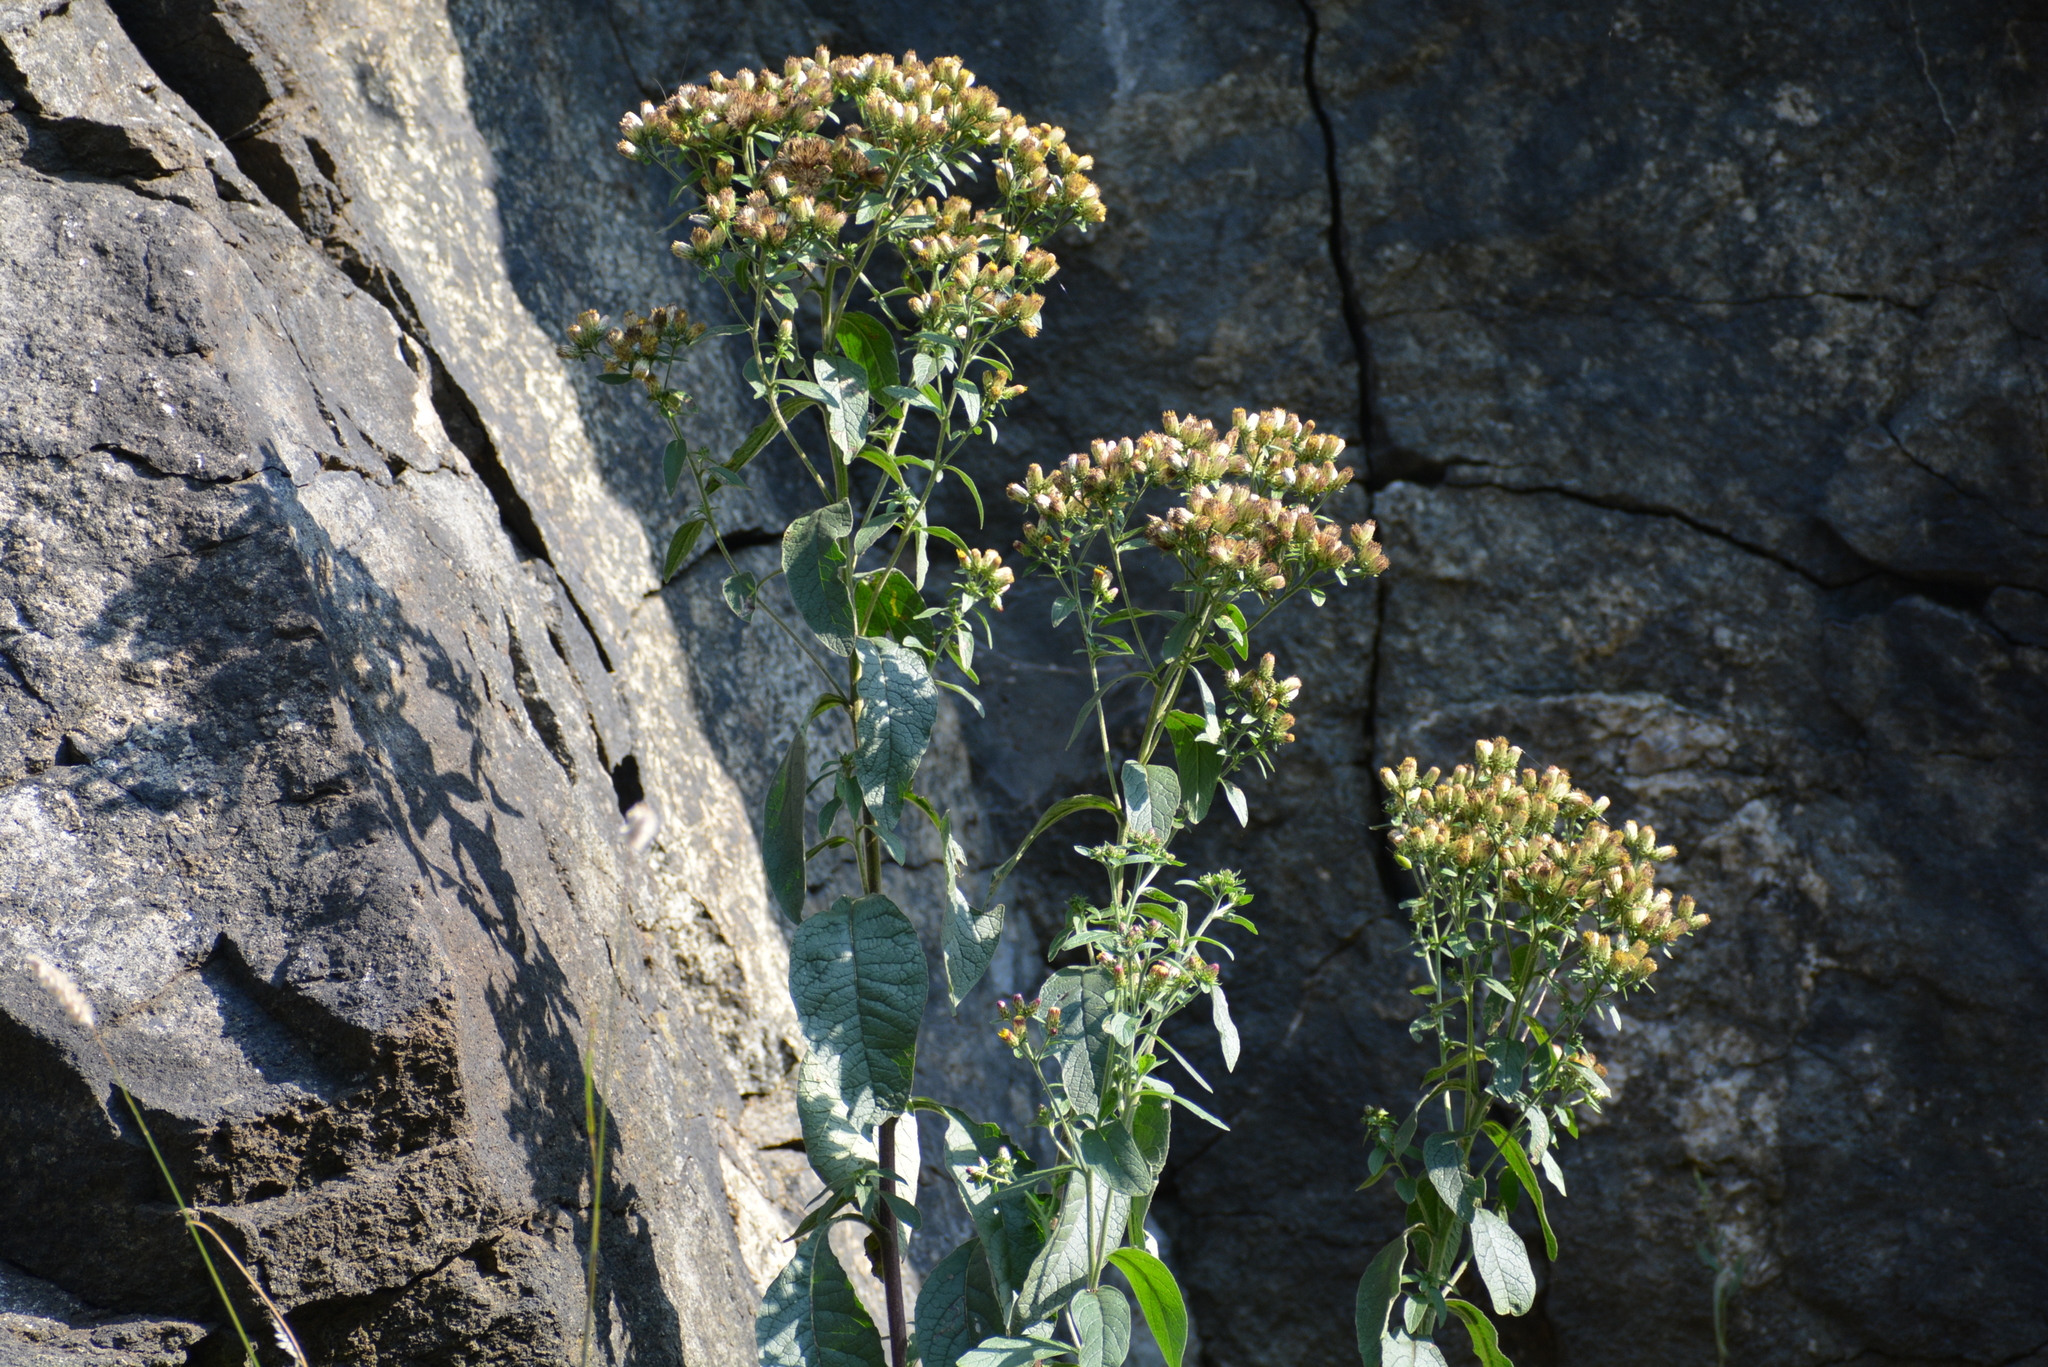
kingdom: Plantae
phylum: Tracheophyta
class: Magnoliopsida
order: Asterales
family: Asteraceae
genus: Pentanema
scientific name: Pentanema squarrosum
